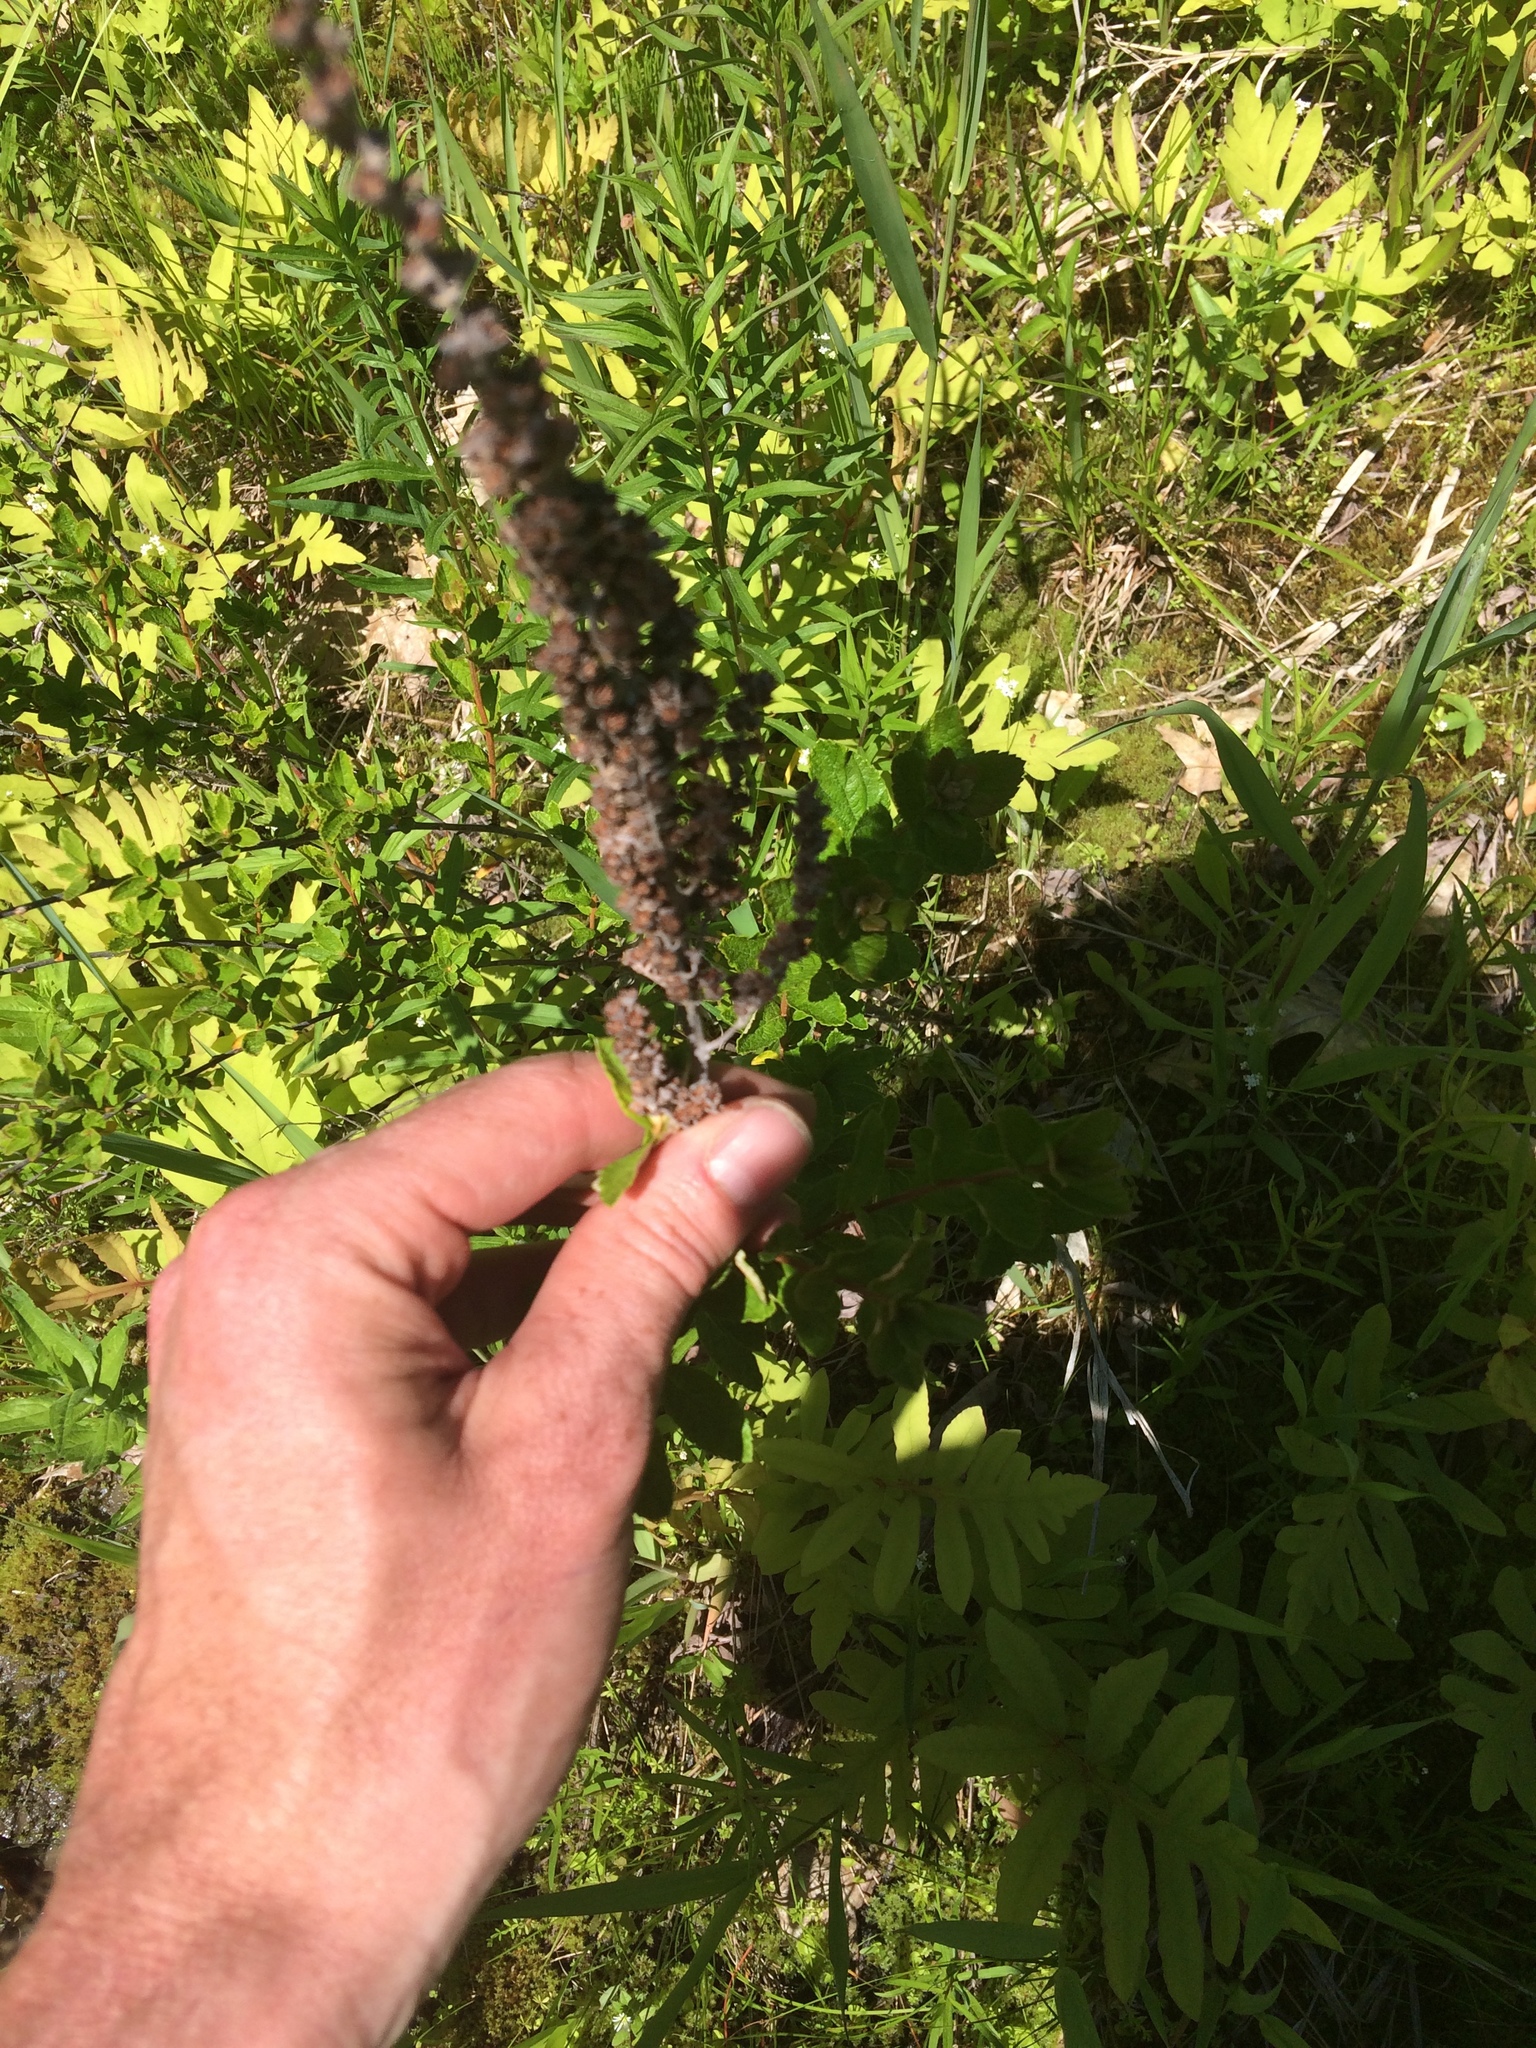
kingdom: Plantae
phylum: Tracheophyta
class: Magnoliopsida
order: Rosales
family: Rosaceae
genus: Spiraea
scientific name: Spiraea tomentosa
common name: Hardhack
